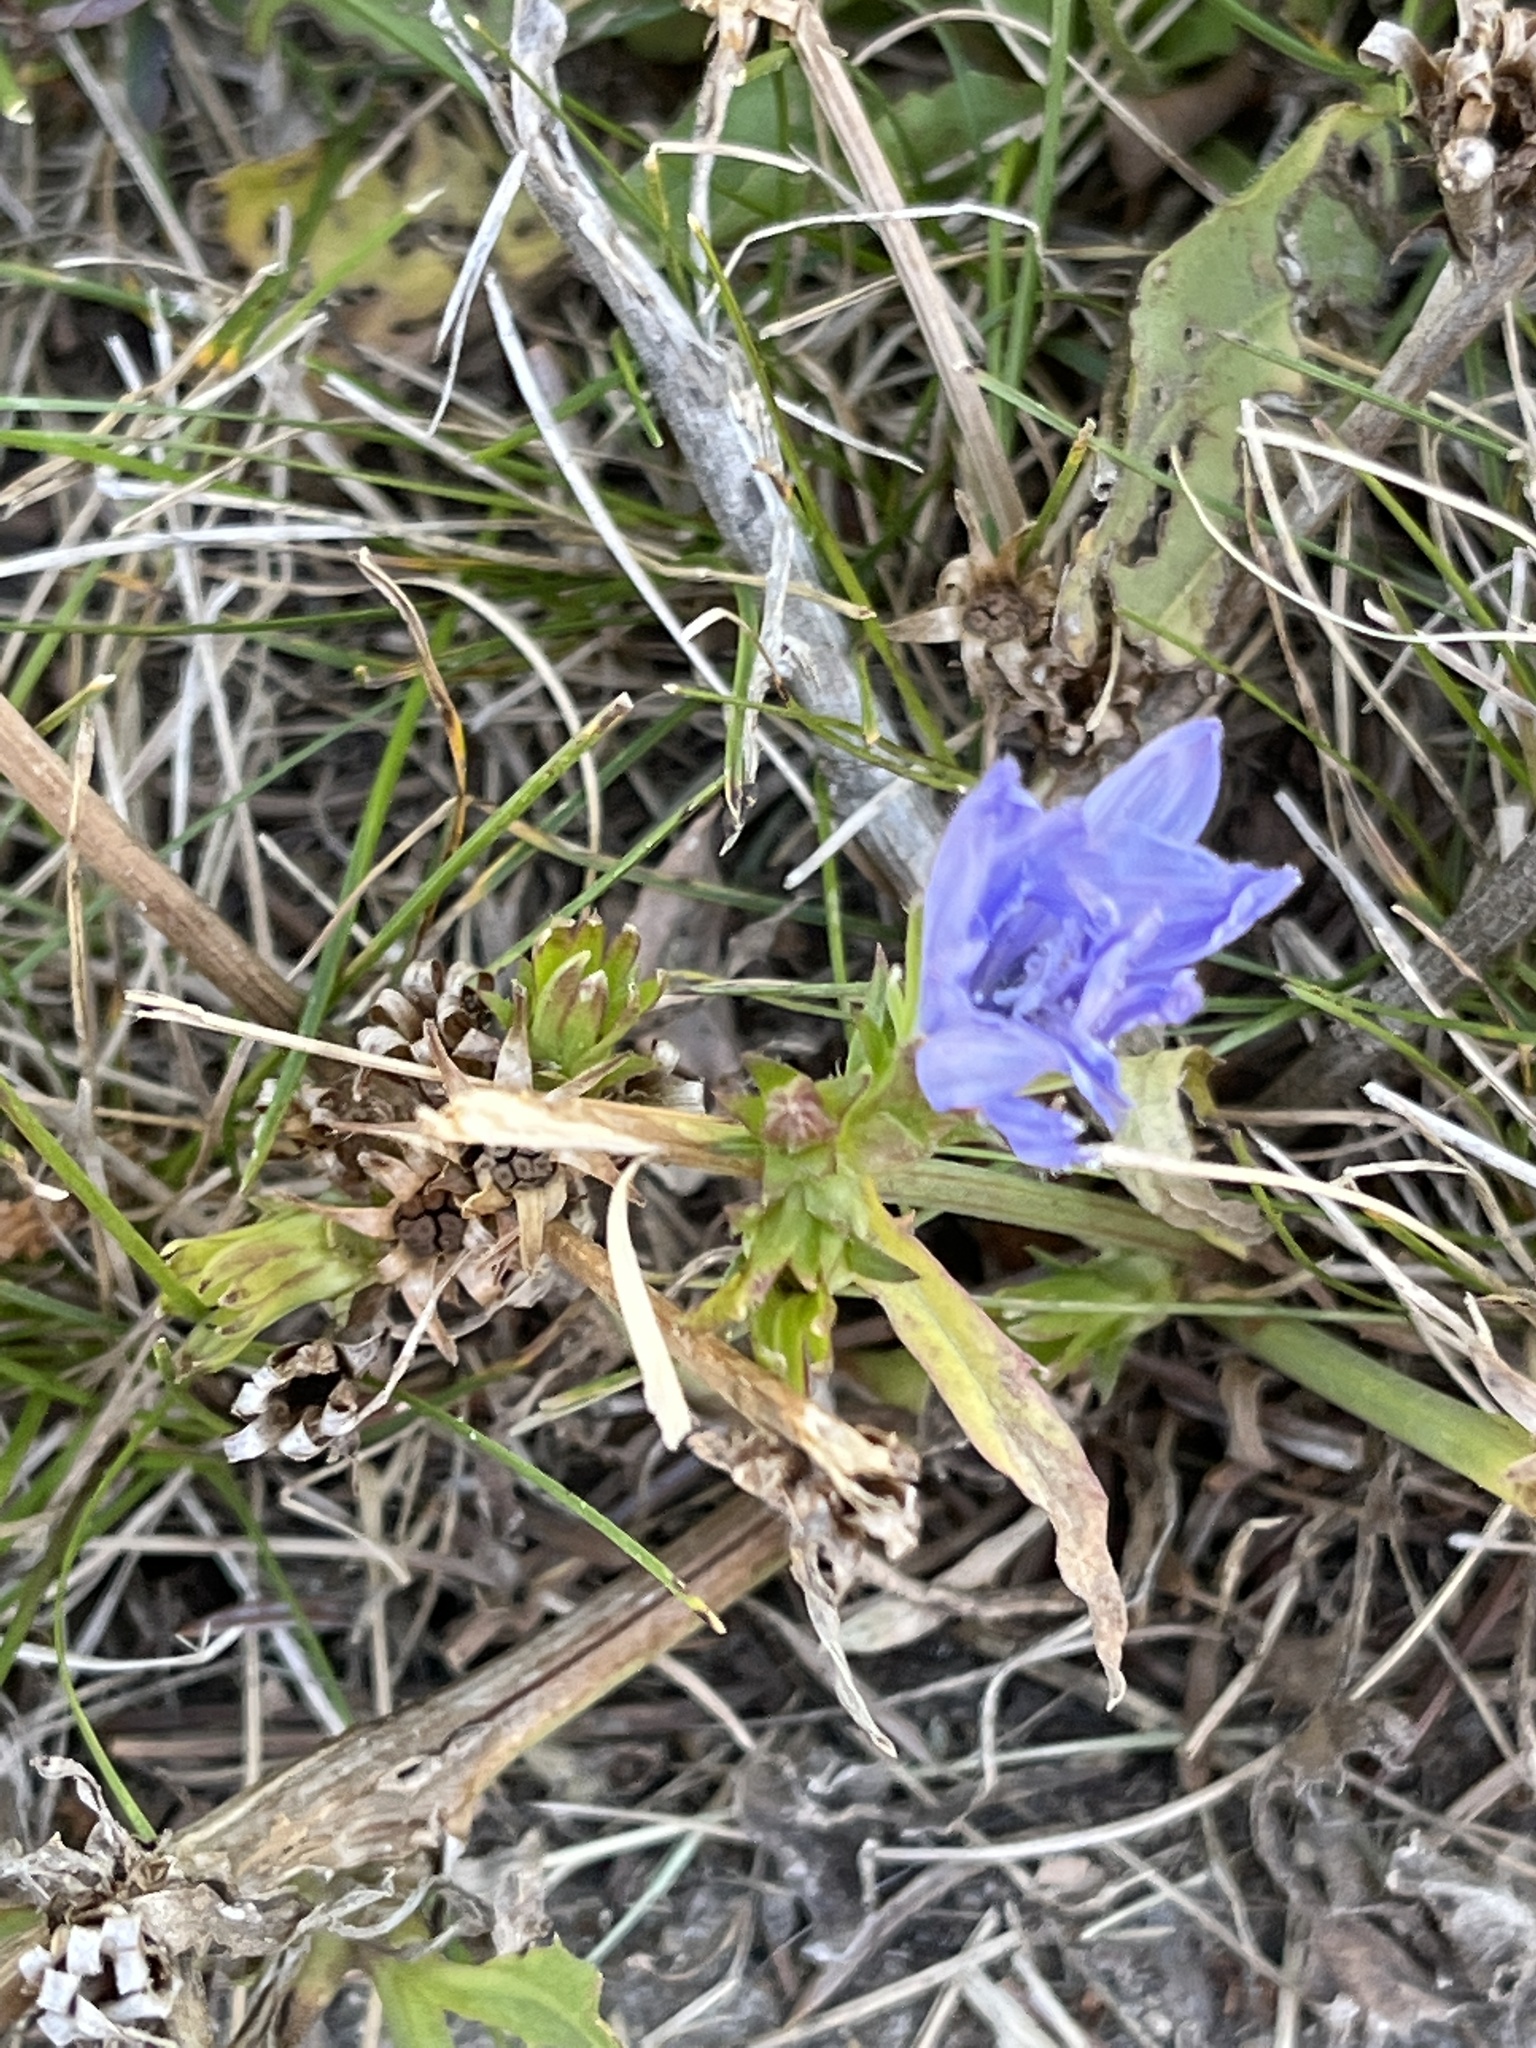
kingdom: Plantae
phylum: Tracheophyta
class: Magnoliopsida
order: Asterales
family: Asteraceae
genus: Cichorium
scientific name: Cichorium intybus
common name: Chicory
